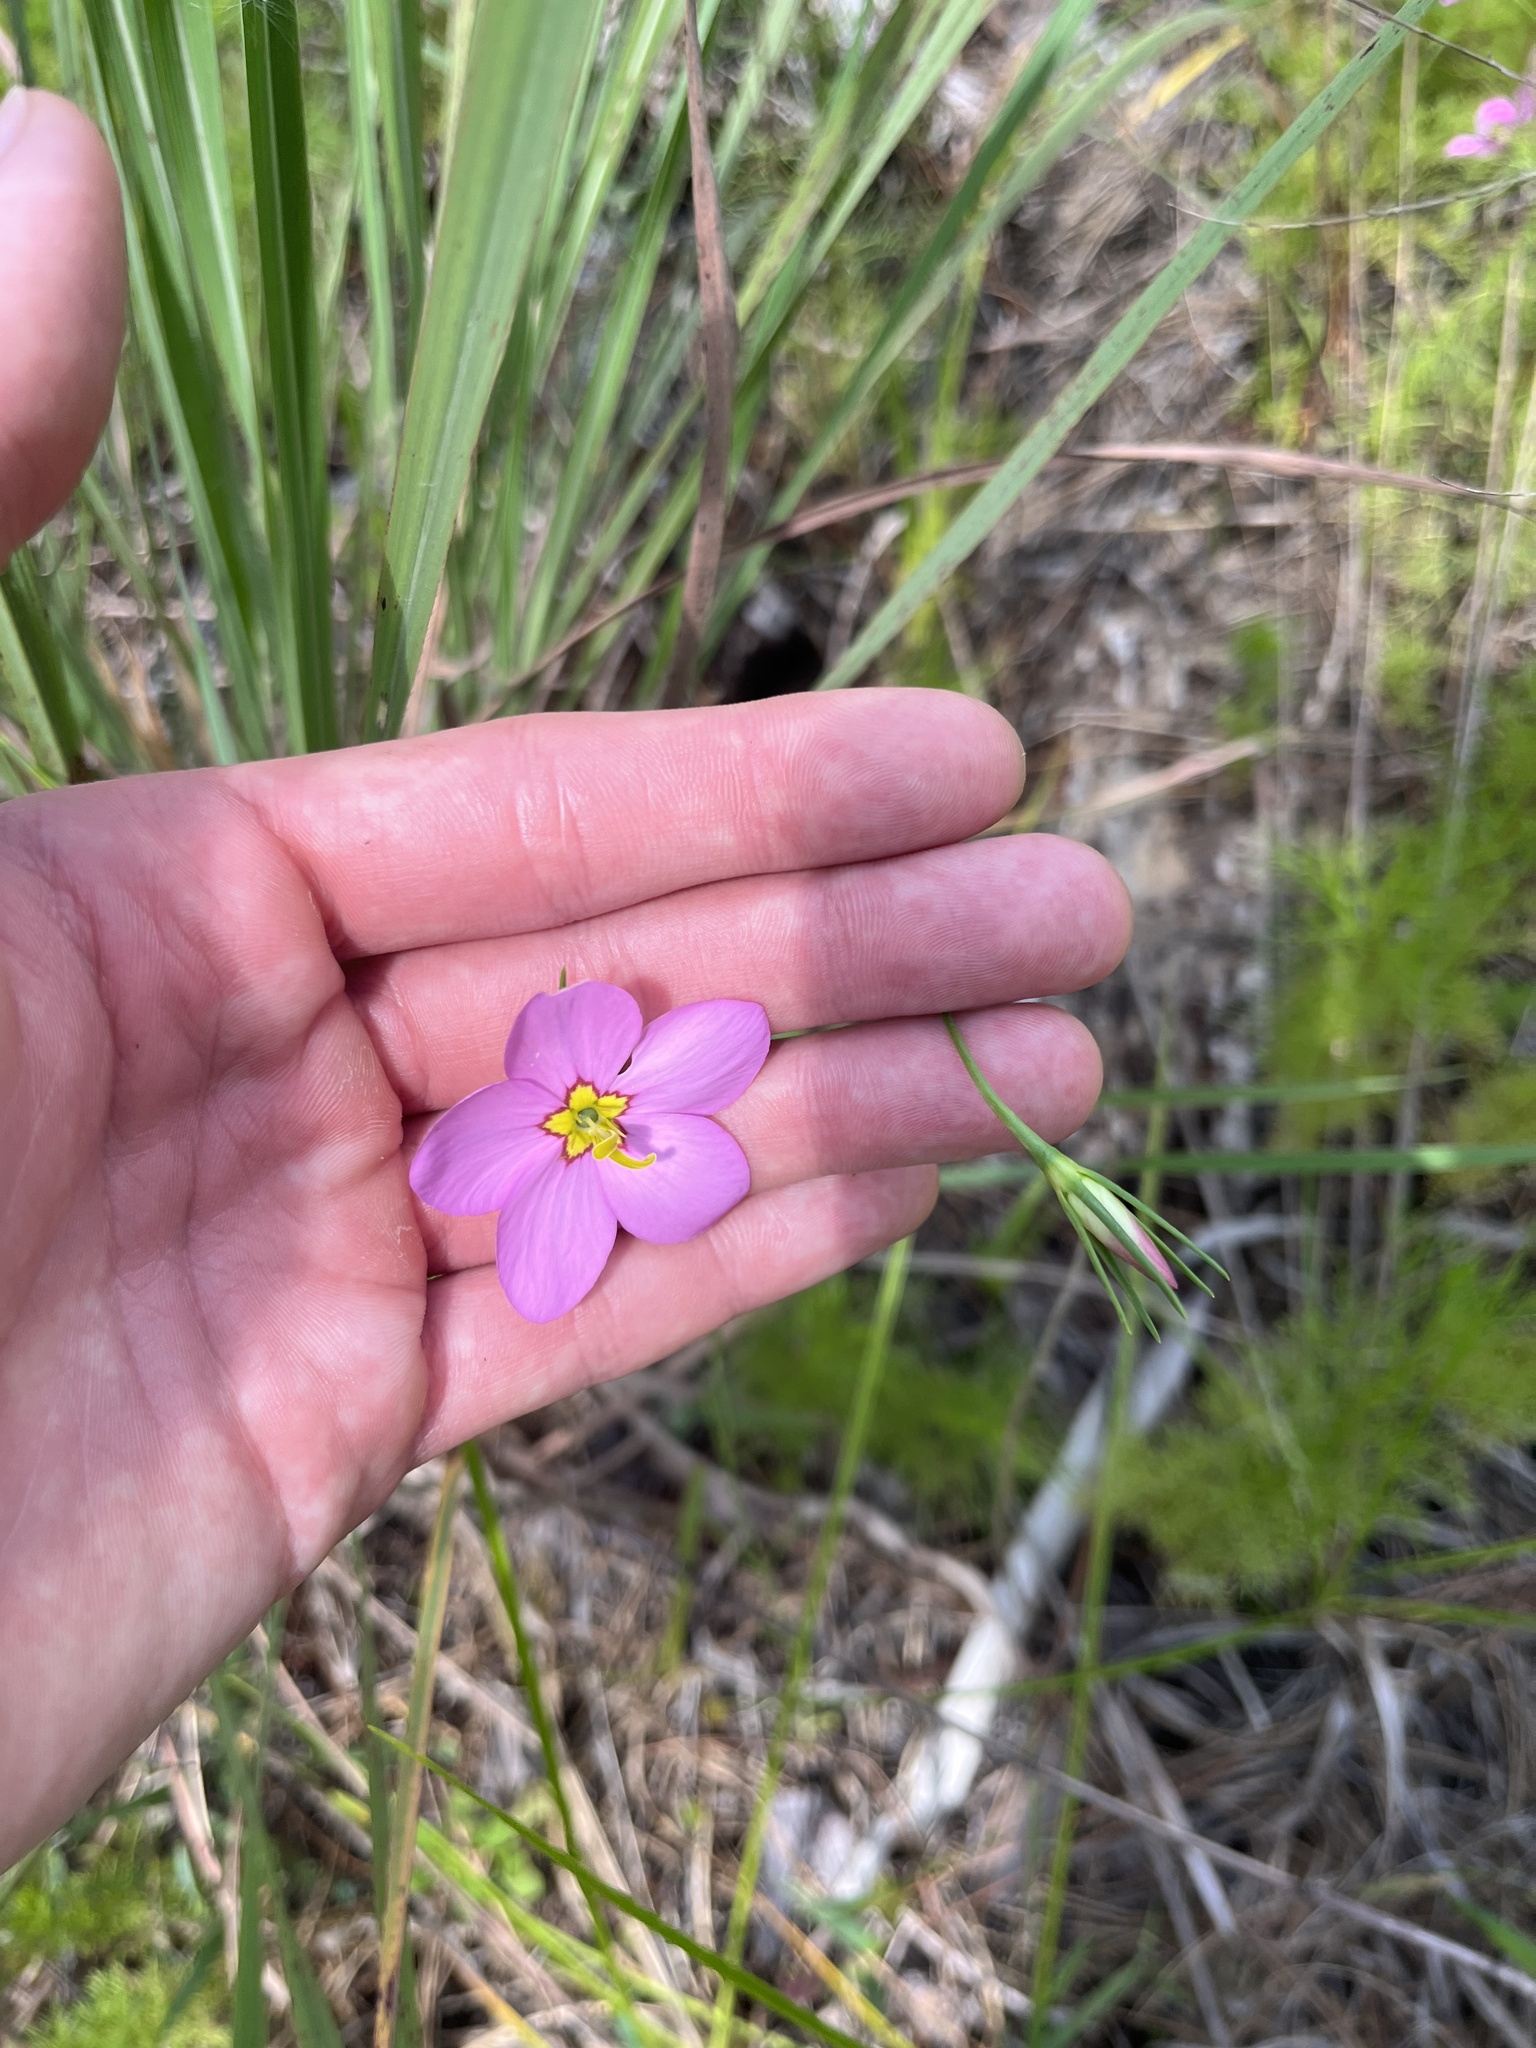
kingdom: Plantae
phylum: Tracheophyta
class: Magnoliopsida
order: Gentianales
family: Gentianaceae
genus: Sabatia
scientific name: Sabatia grandiflora
